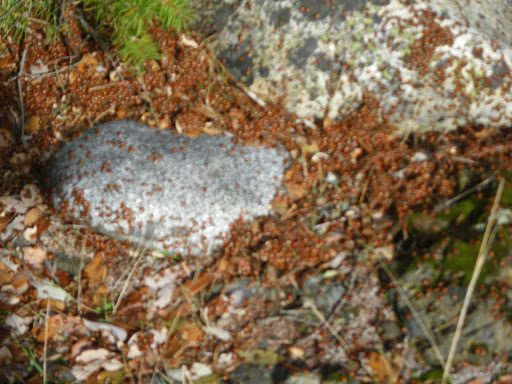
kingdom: Animalia
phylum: Arthropoda
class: Insecta
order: Coleoptera
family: Coccinellidae
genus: Hippodamia
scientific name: Hippodamia convergens
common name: Convergent lady beetle
